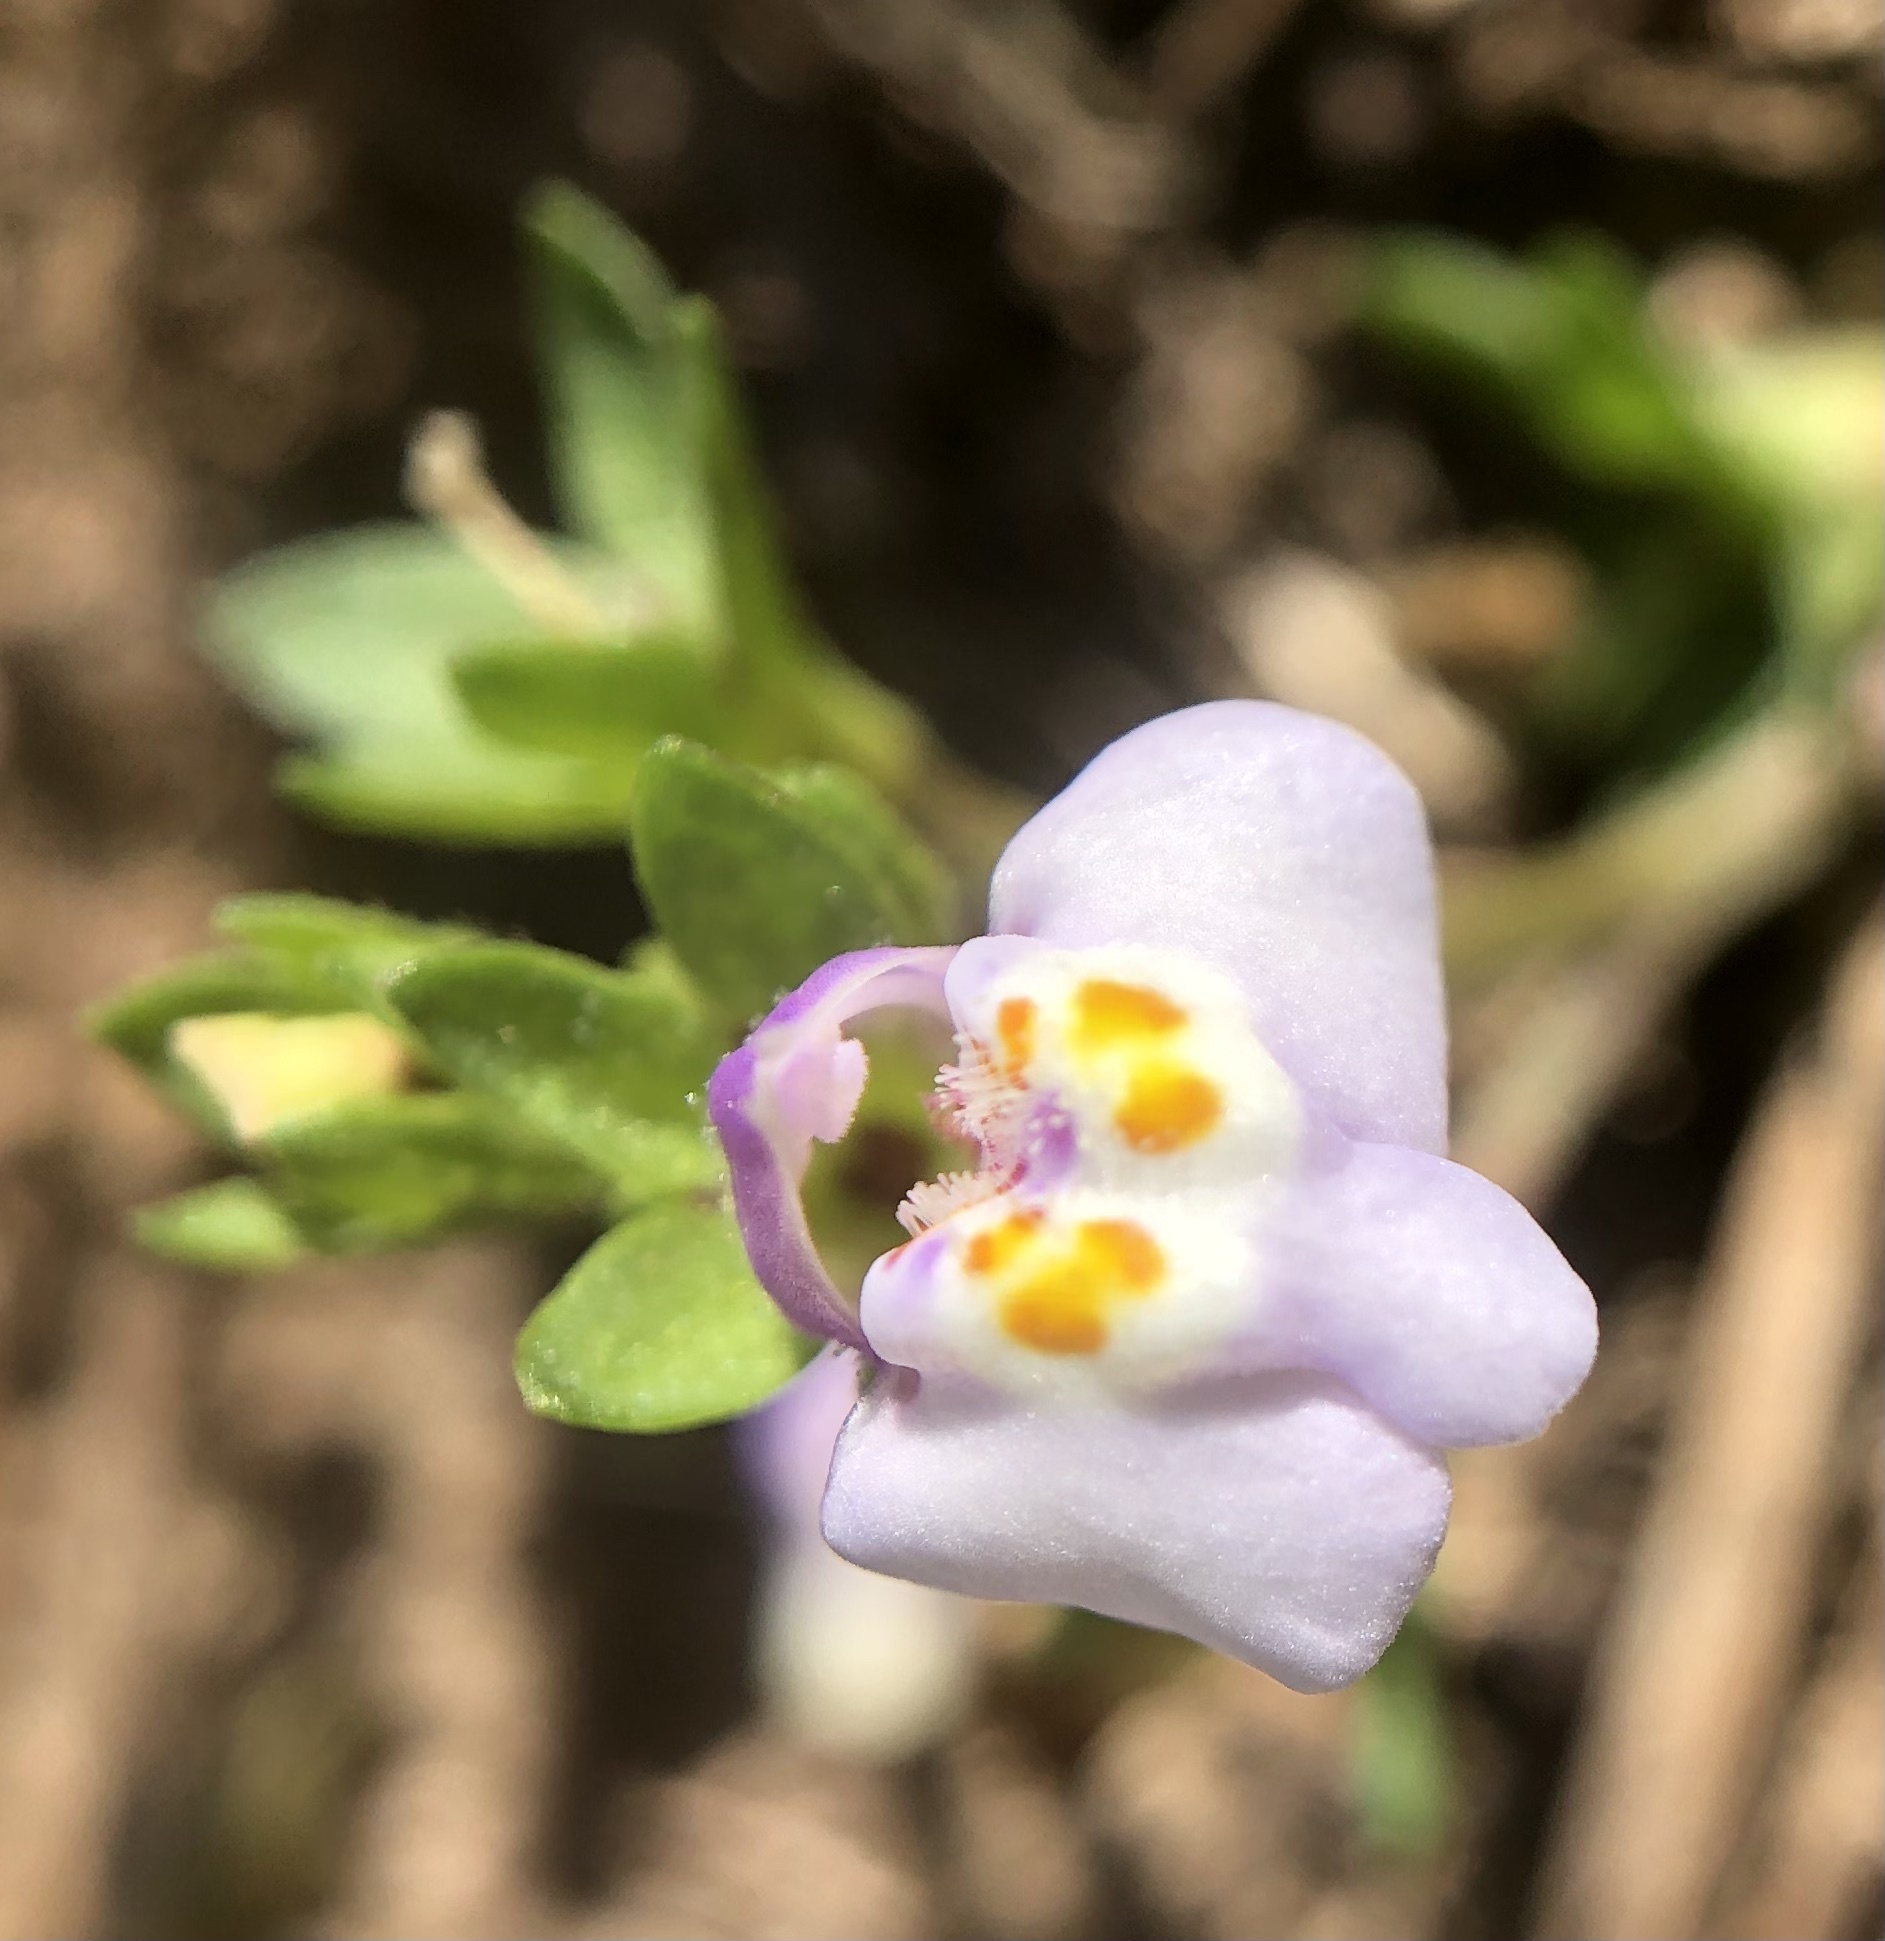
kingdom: Plantae
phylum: Tracheophyta
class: Magnoliopsida
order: Lamiales
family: Mazaceae
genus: Mazus
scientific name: Mazus pumilus
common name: Japanese mazus
